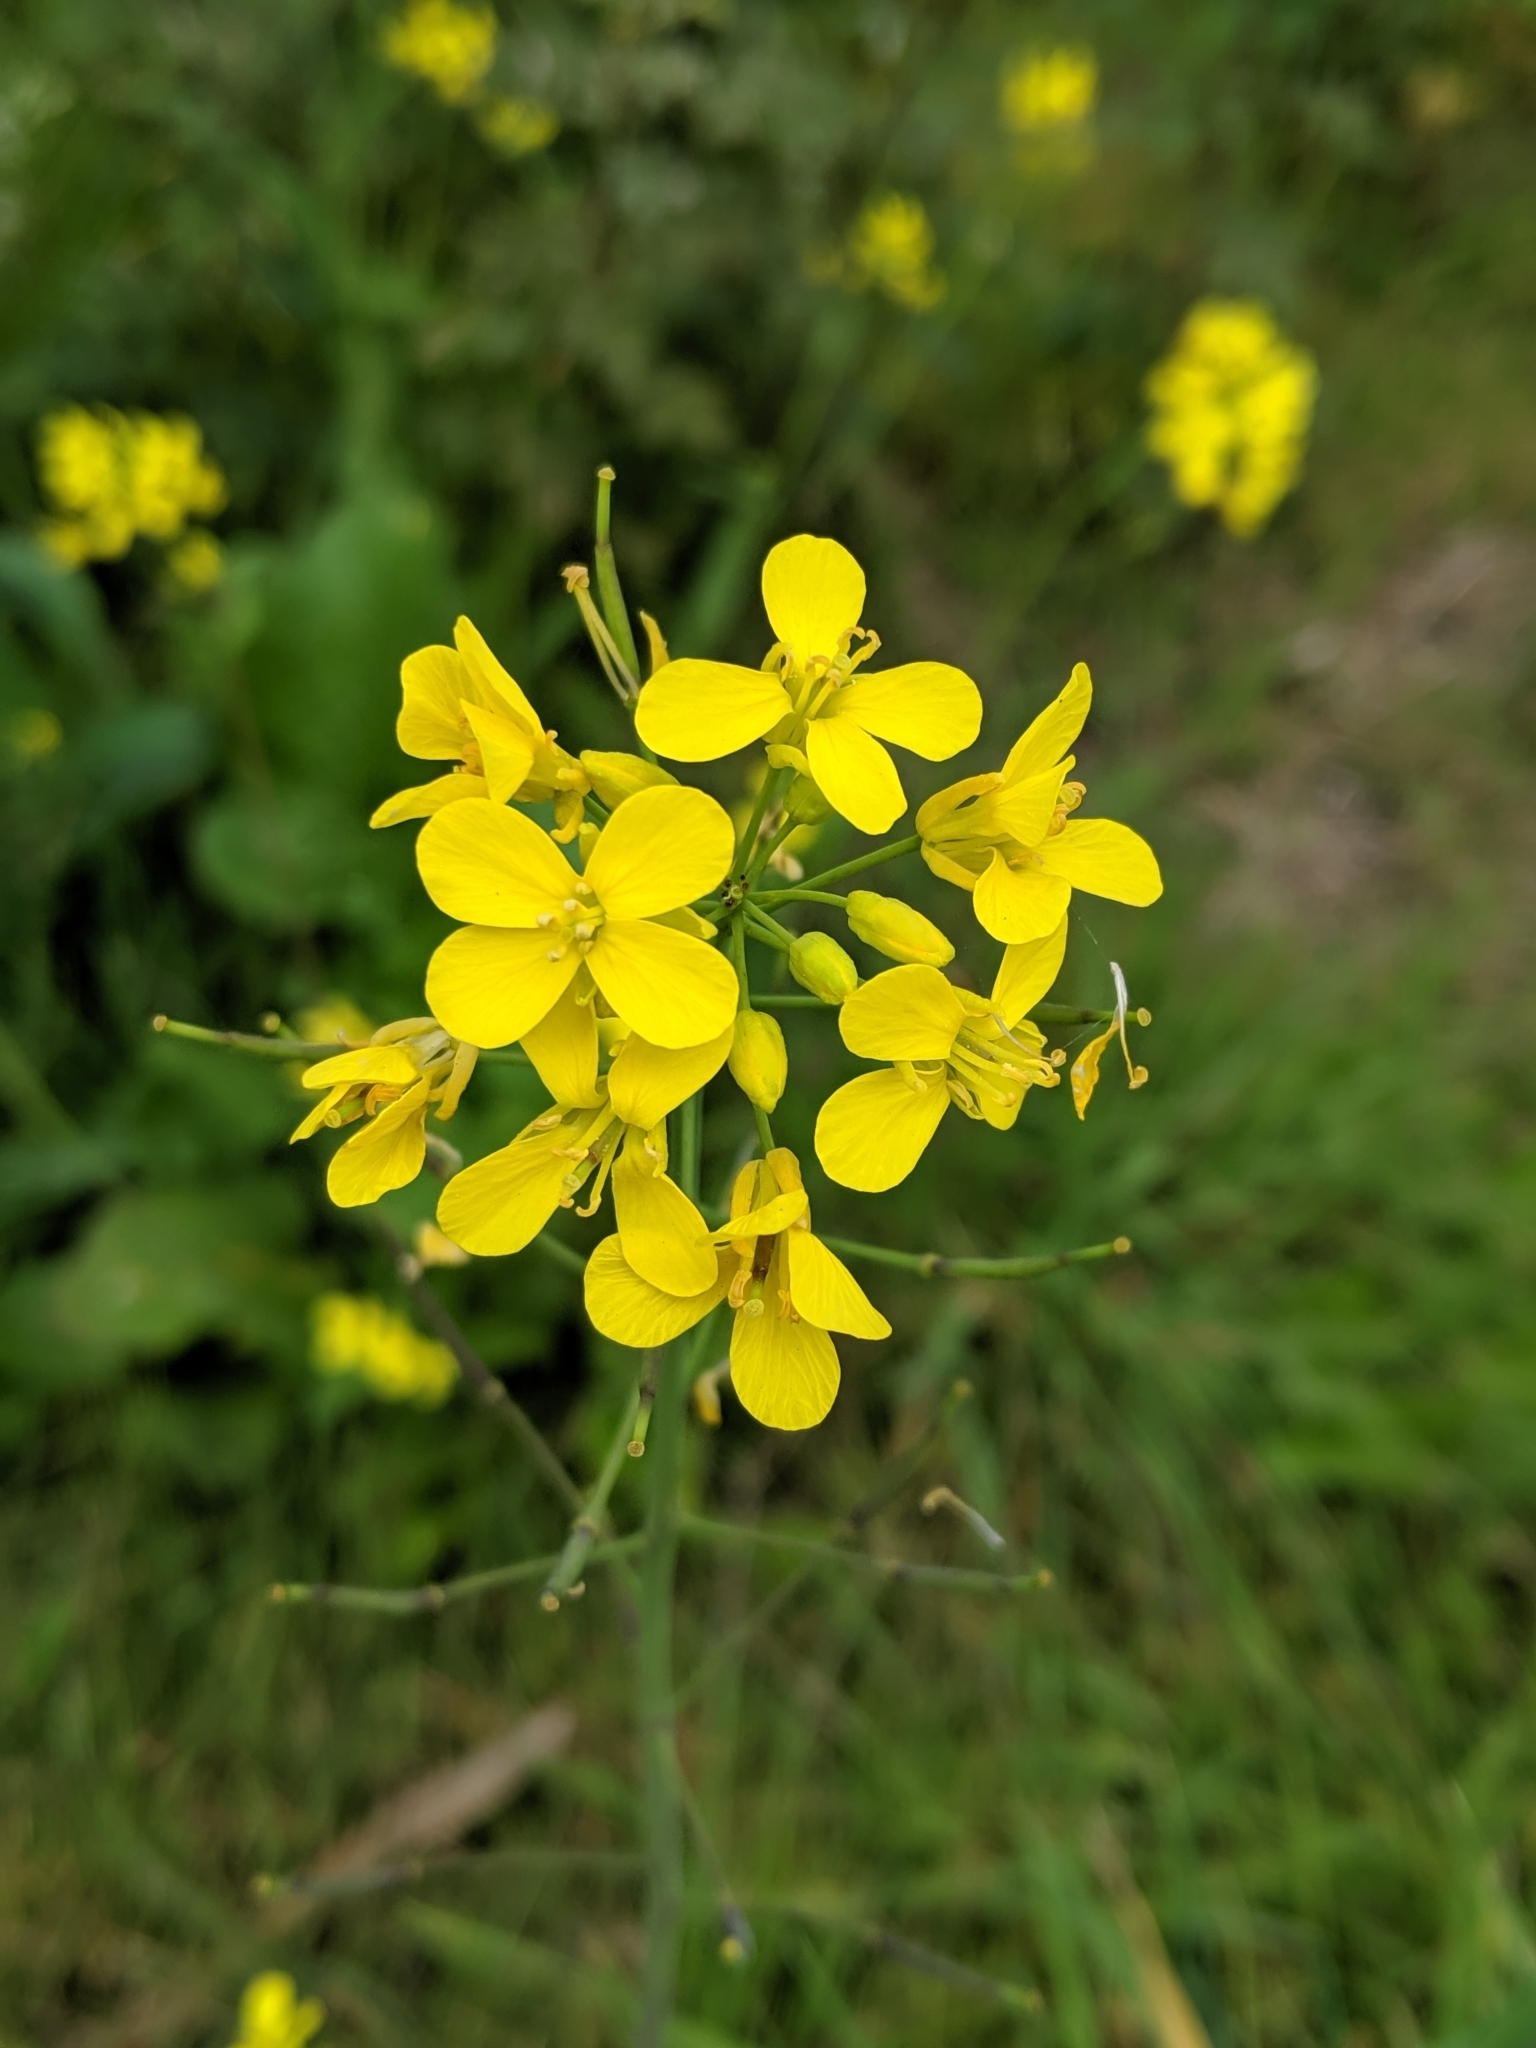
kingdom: Plantae
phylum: Tracheophyta
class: Magnoliopsida
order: Brassicales
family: Brassicaceae
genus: Brassica
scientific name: Brassica rapa
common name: Field mustard
